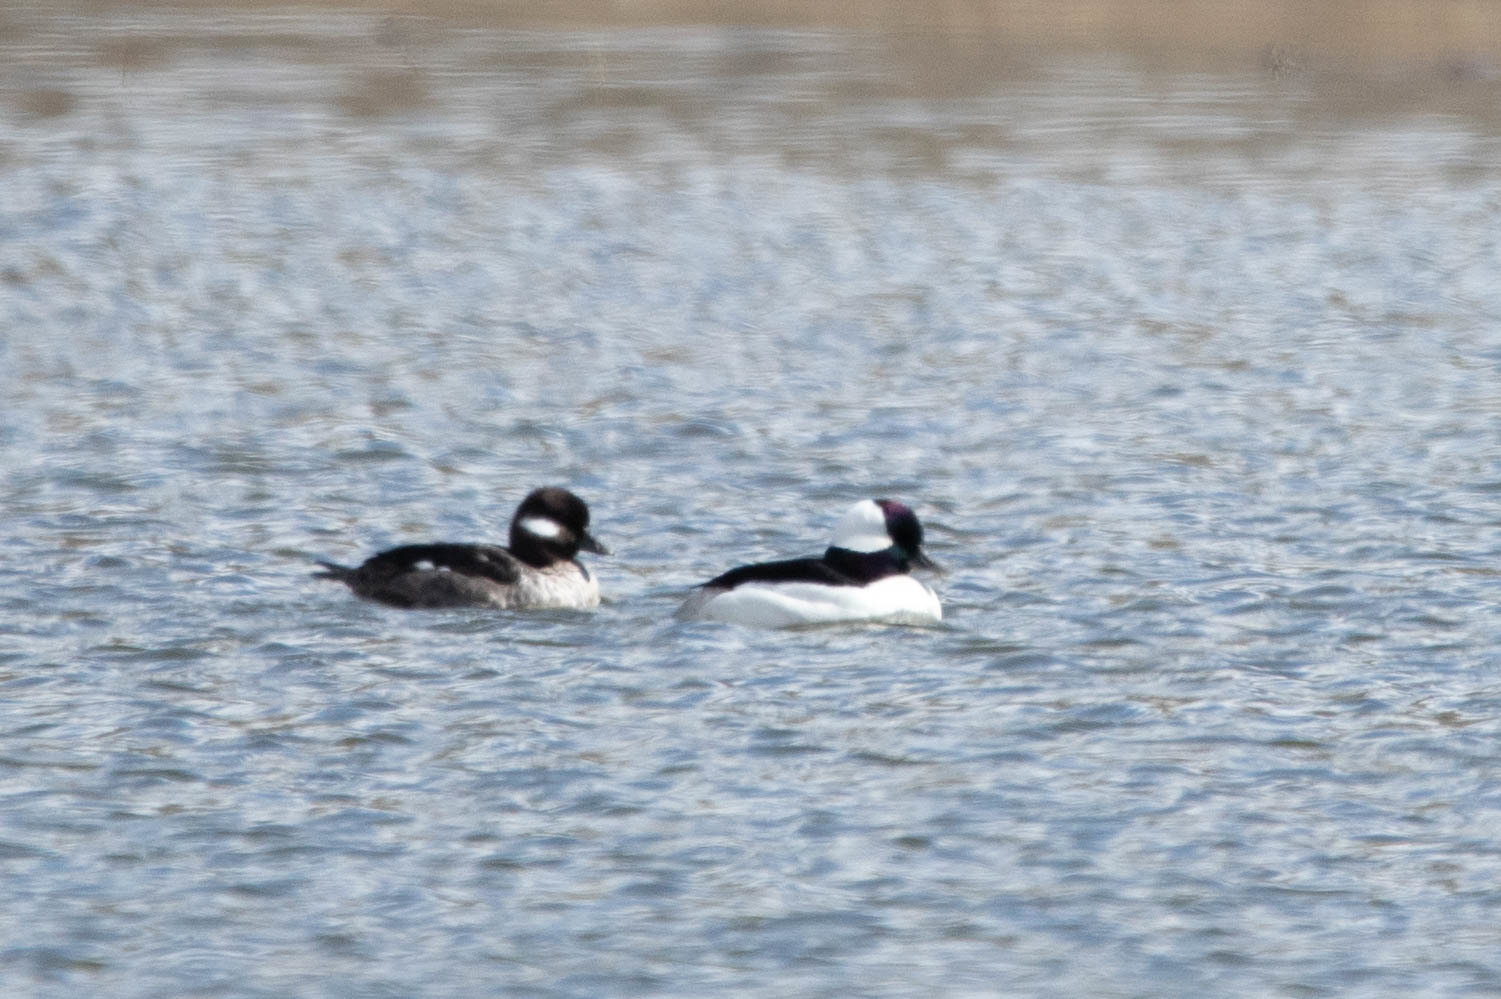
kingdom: Animalia
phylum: Chordata
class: Aves
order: Anseriformes
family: Anatidae
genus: Bucephala
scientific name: Bucephala albeola
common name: Bufflehead
